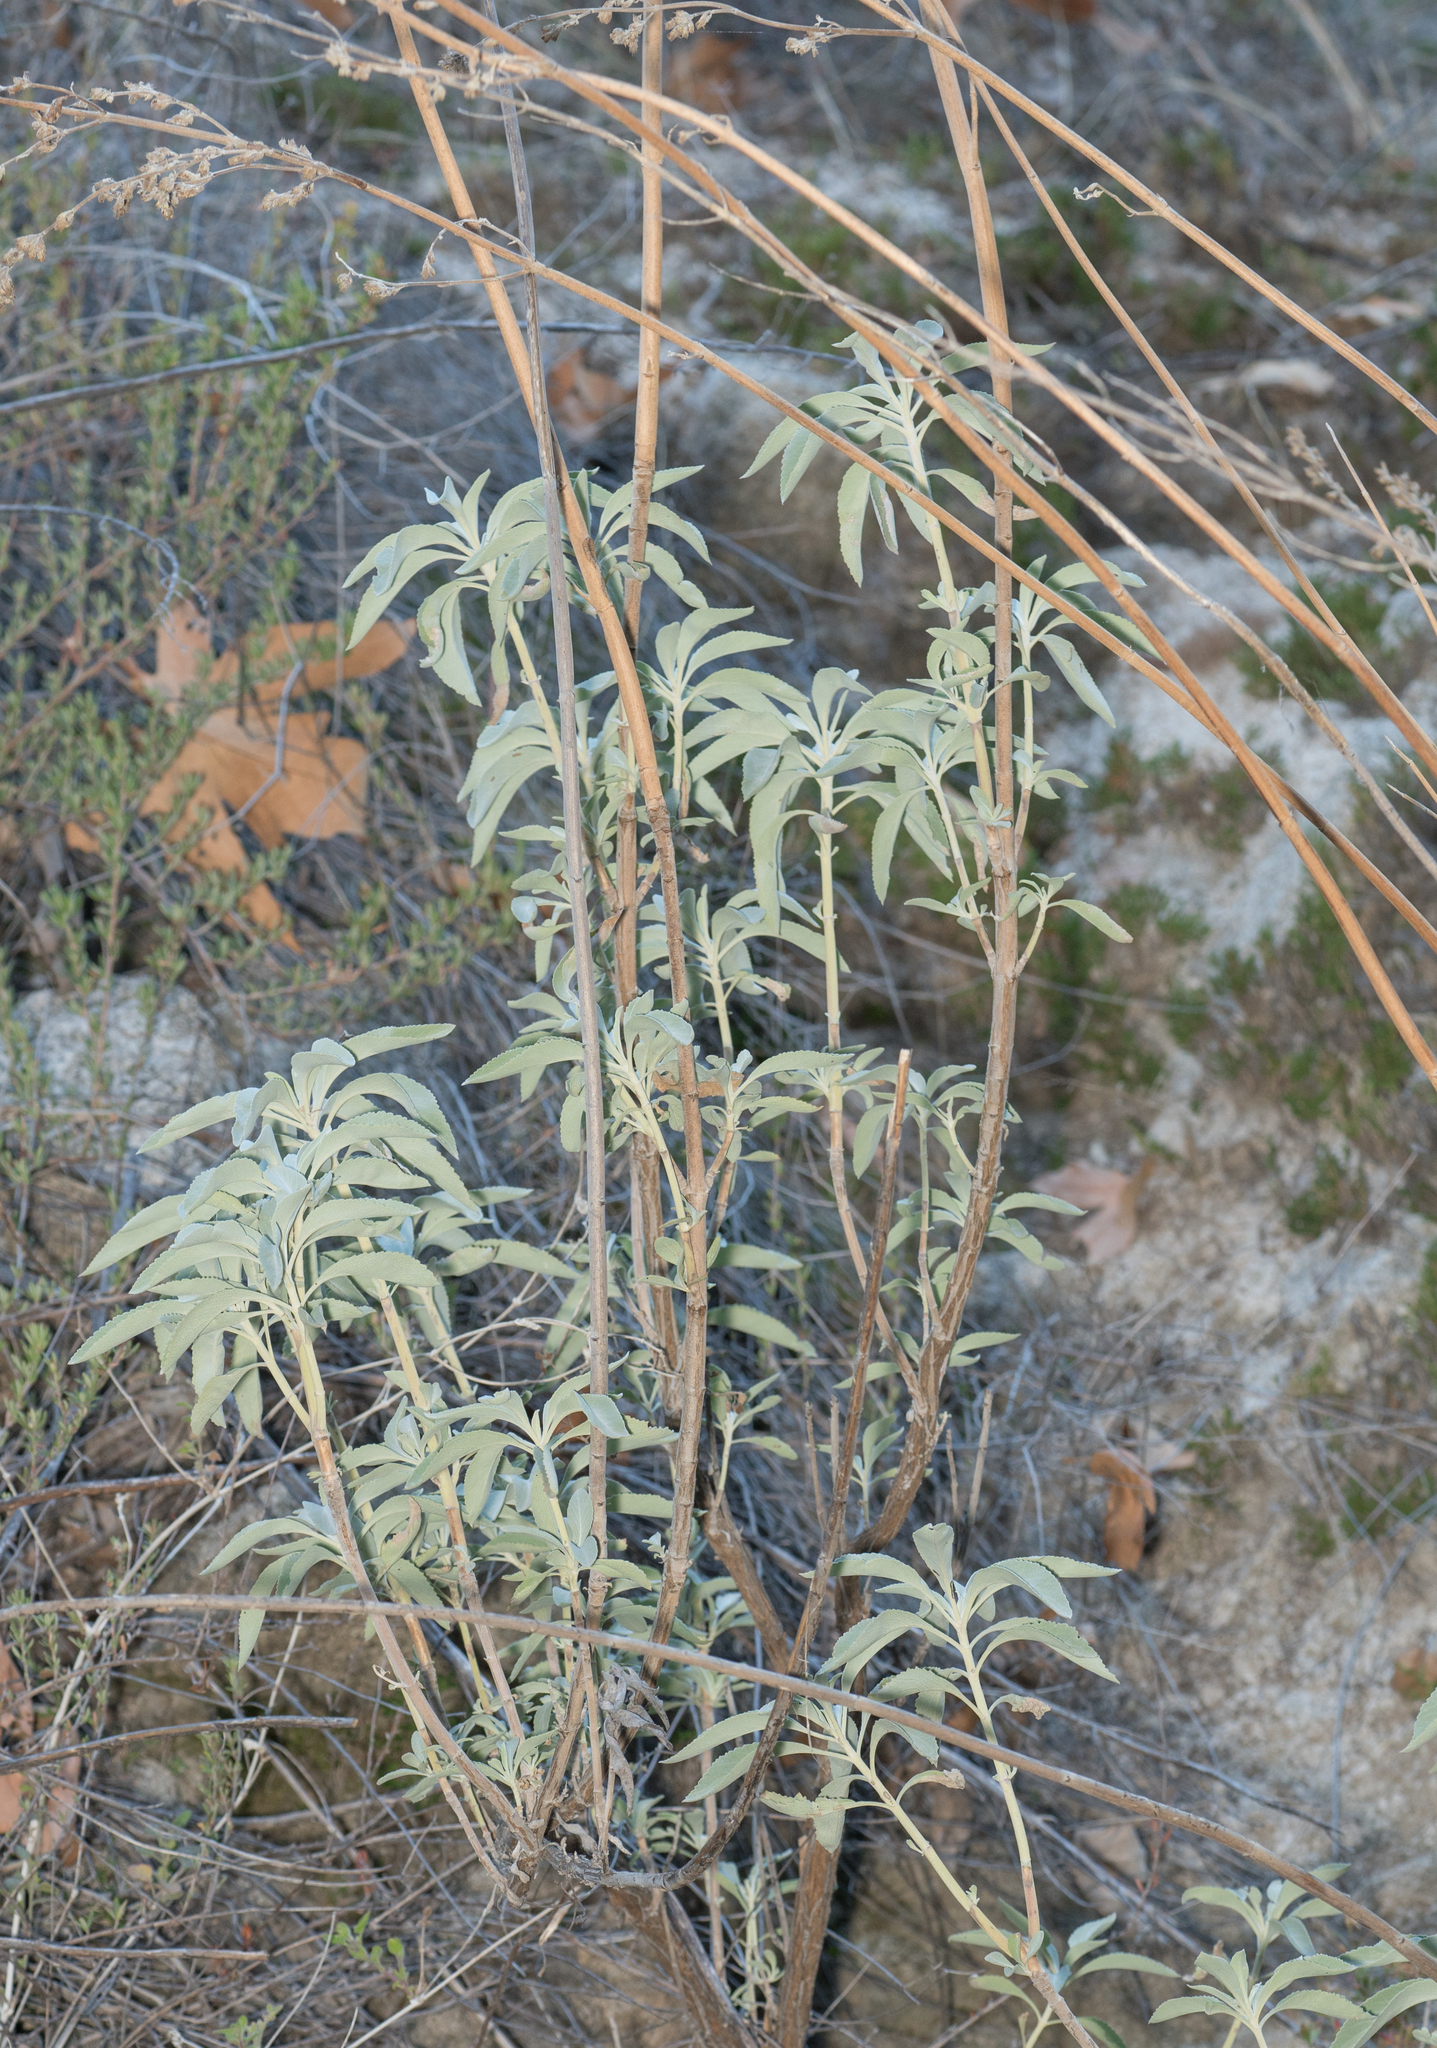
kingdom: Plantae
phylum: Tracheophyta
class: Magnoliopsida
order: Lamiales
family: Lamiaceae
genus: Salvia
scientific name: Salvia apiana
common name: White sage
